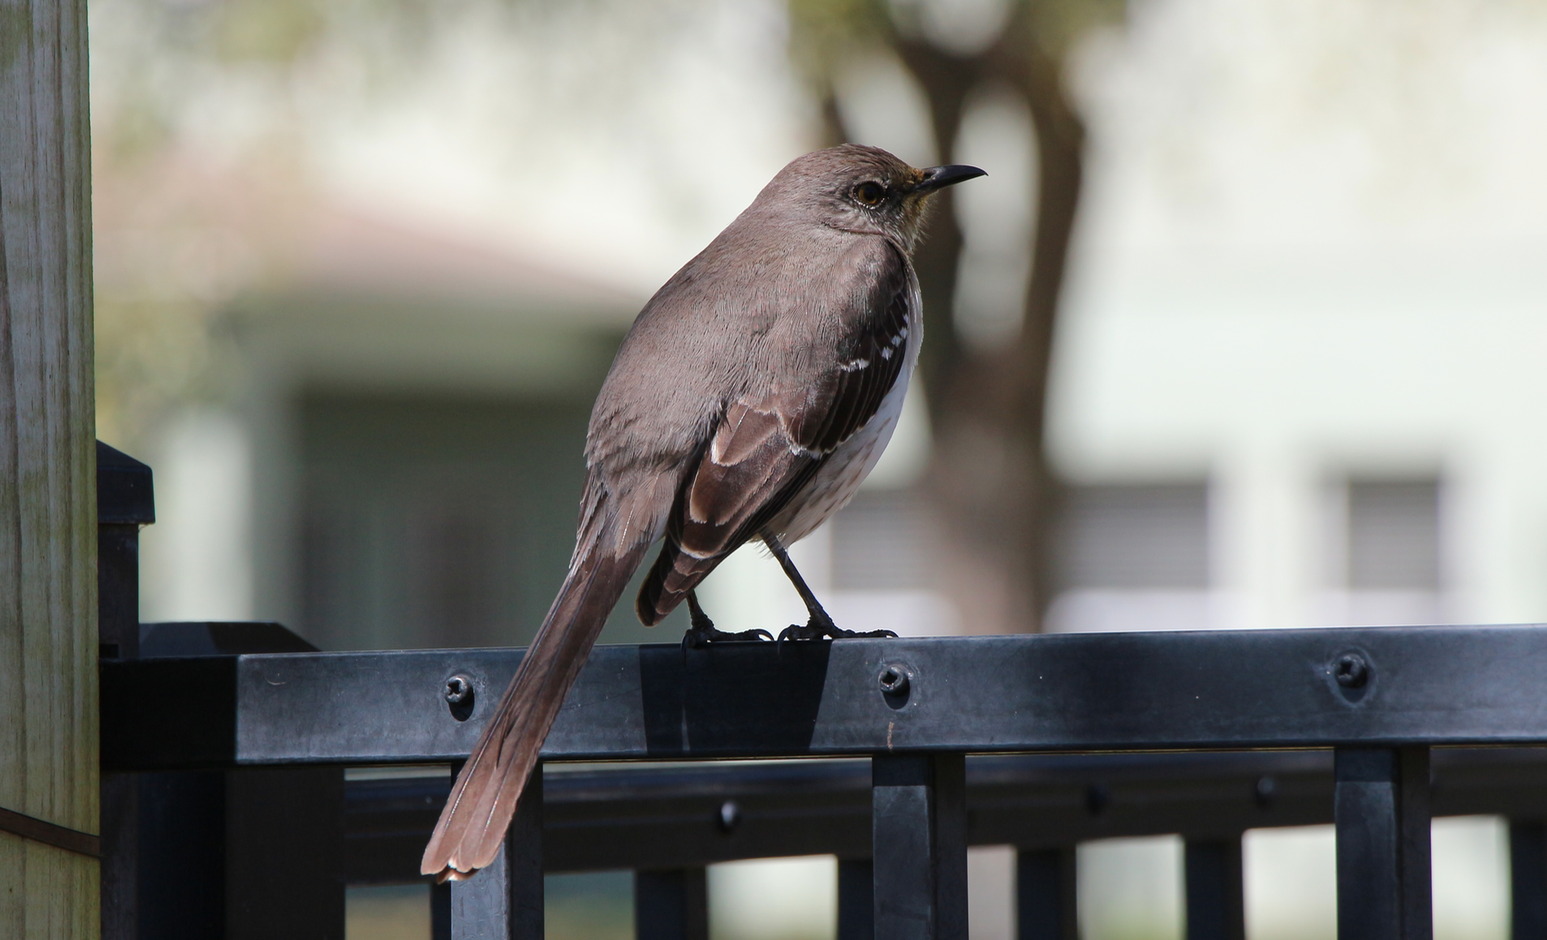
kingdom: Animalia
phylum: Chordata
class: Aves
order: Passeriformes
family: Mimidae
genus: Mimus
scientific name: Mimus polyglottos
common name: Northern mockingbird
